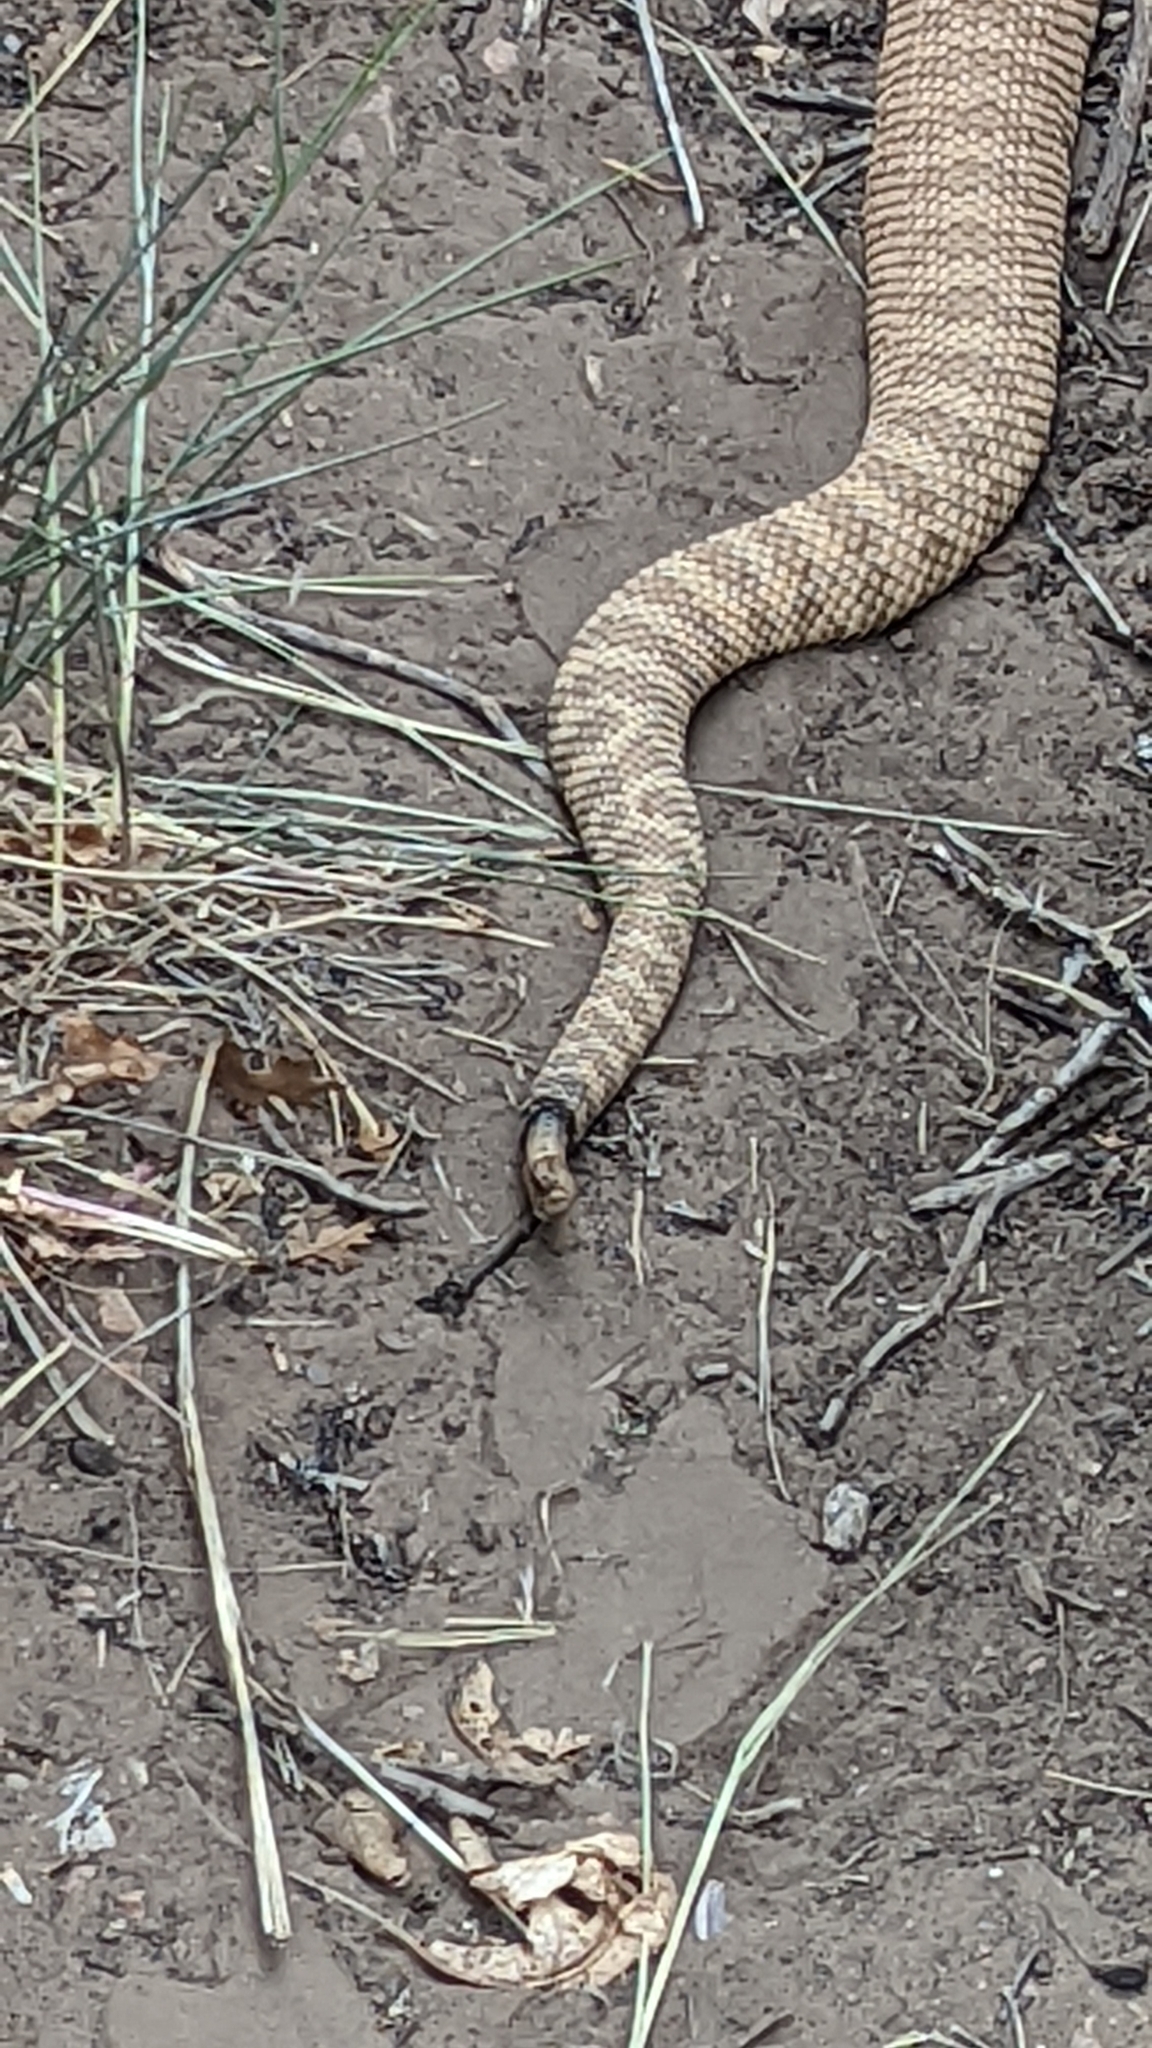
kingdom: Animalia
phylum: Chordata
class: Squamata
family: Viperidae
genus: Crotalus
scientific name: Crotalus oreganus
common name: Abyssus
